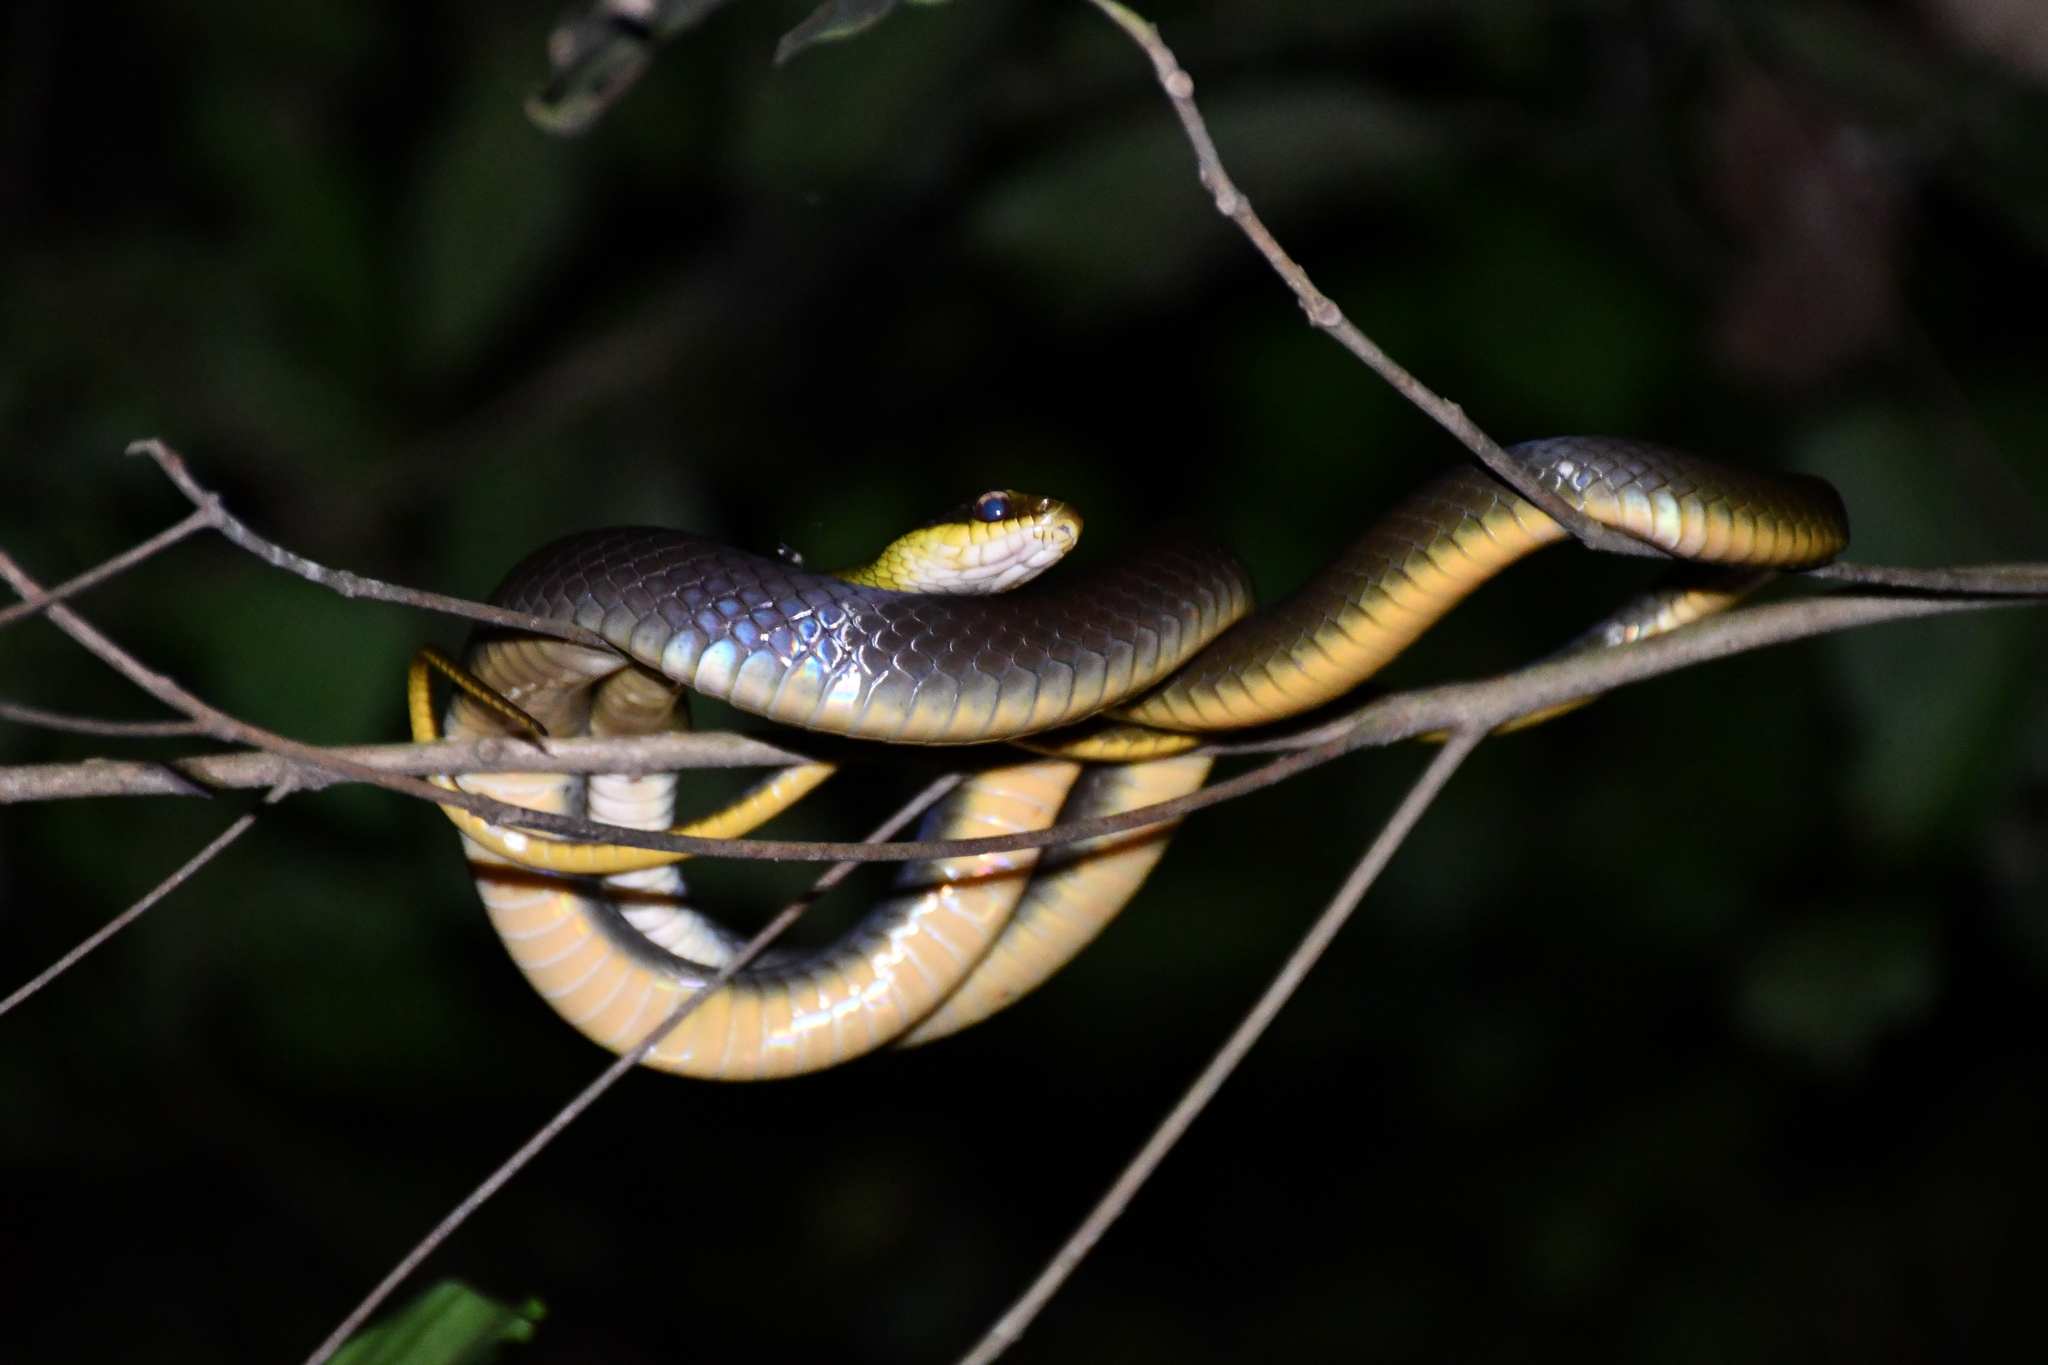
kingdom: Animalia
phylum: Chordata
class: Squamata
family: Colubridae
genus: Drymoluber
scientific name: Drymoluber dichrous
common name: Northern woodland racer
